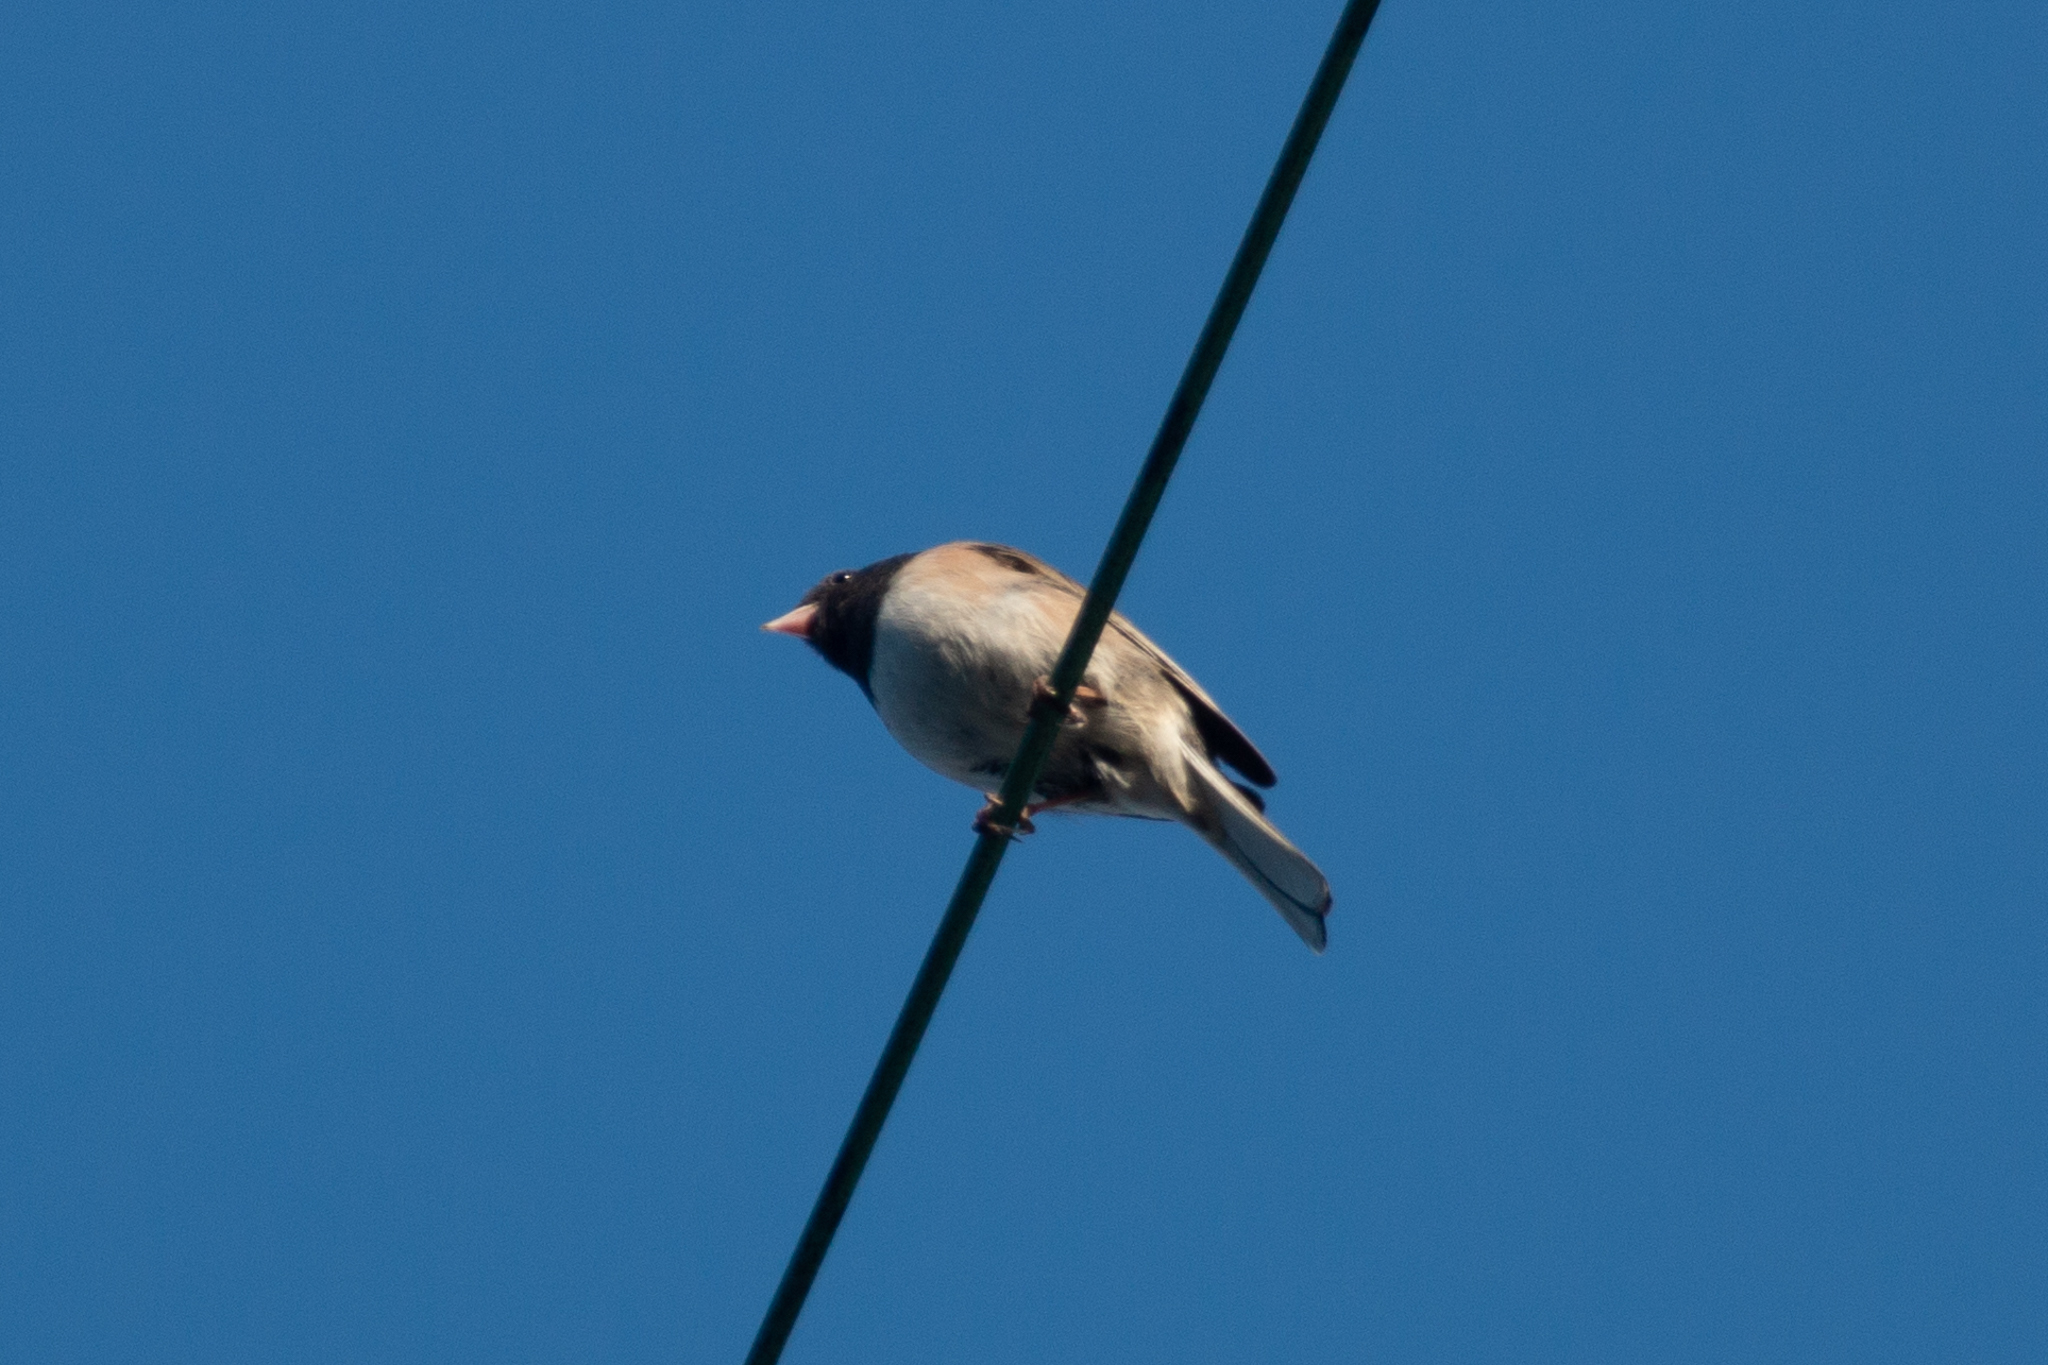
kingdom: Animalia
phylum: Chordata
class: Aves
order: Passeriformes
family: Passerellidae
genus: Junco
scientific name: Junco hyemalis
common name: Dark-eyed junco
